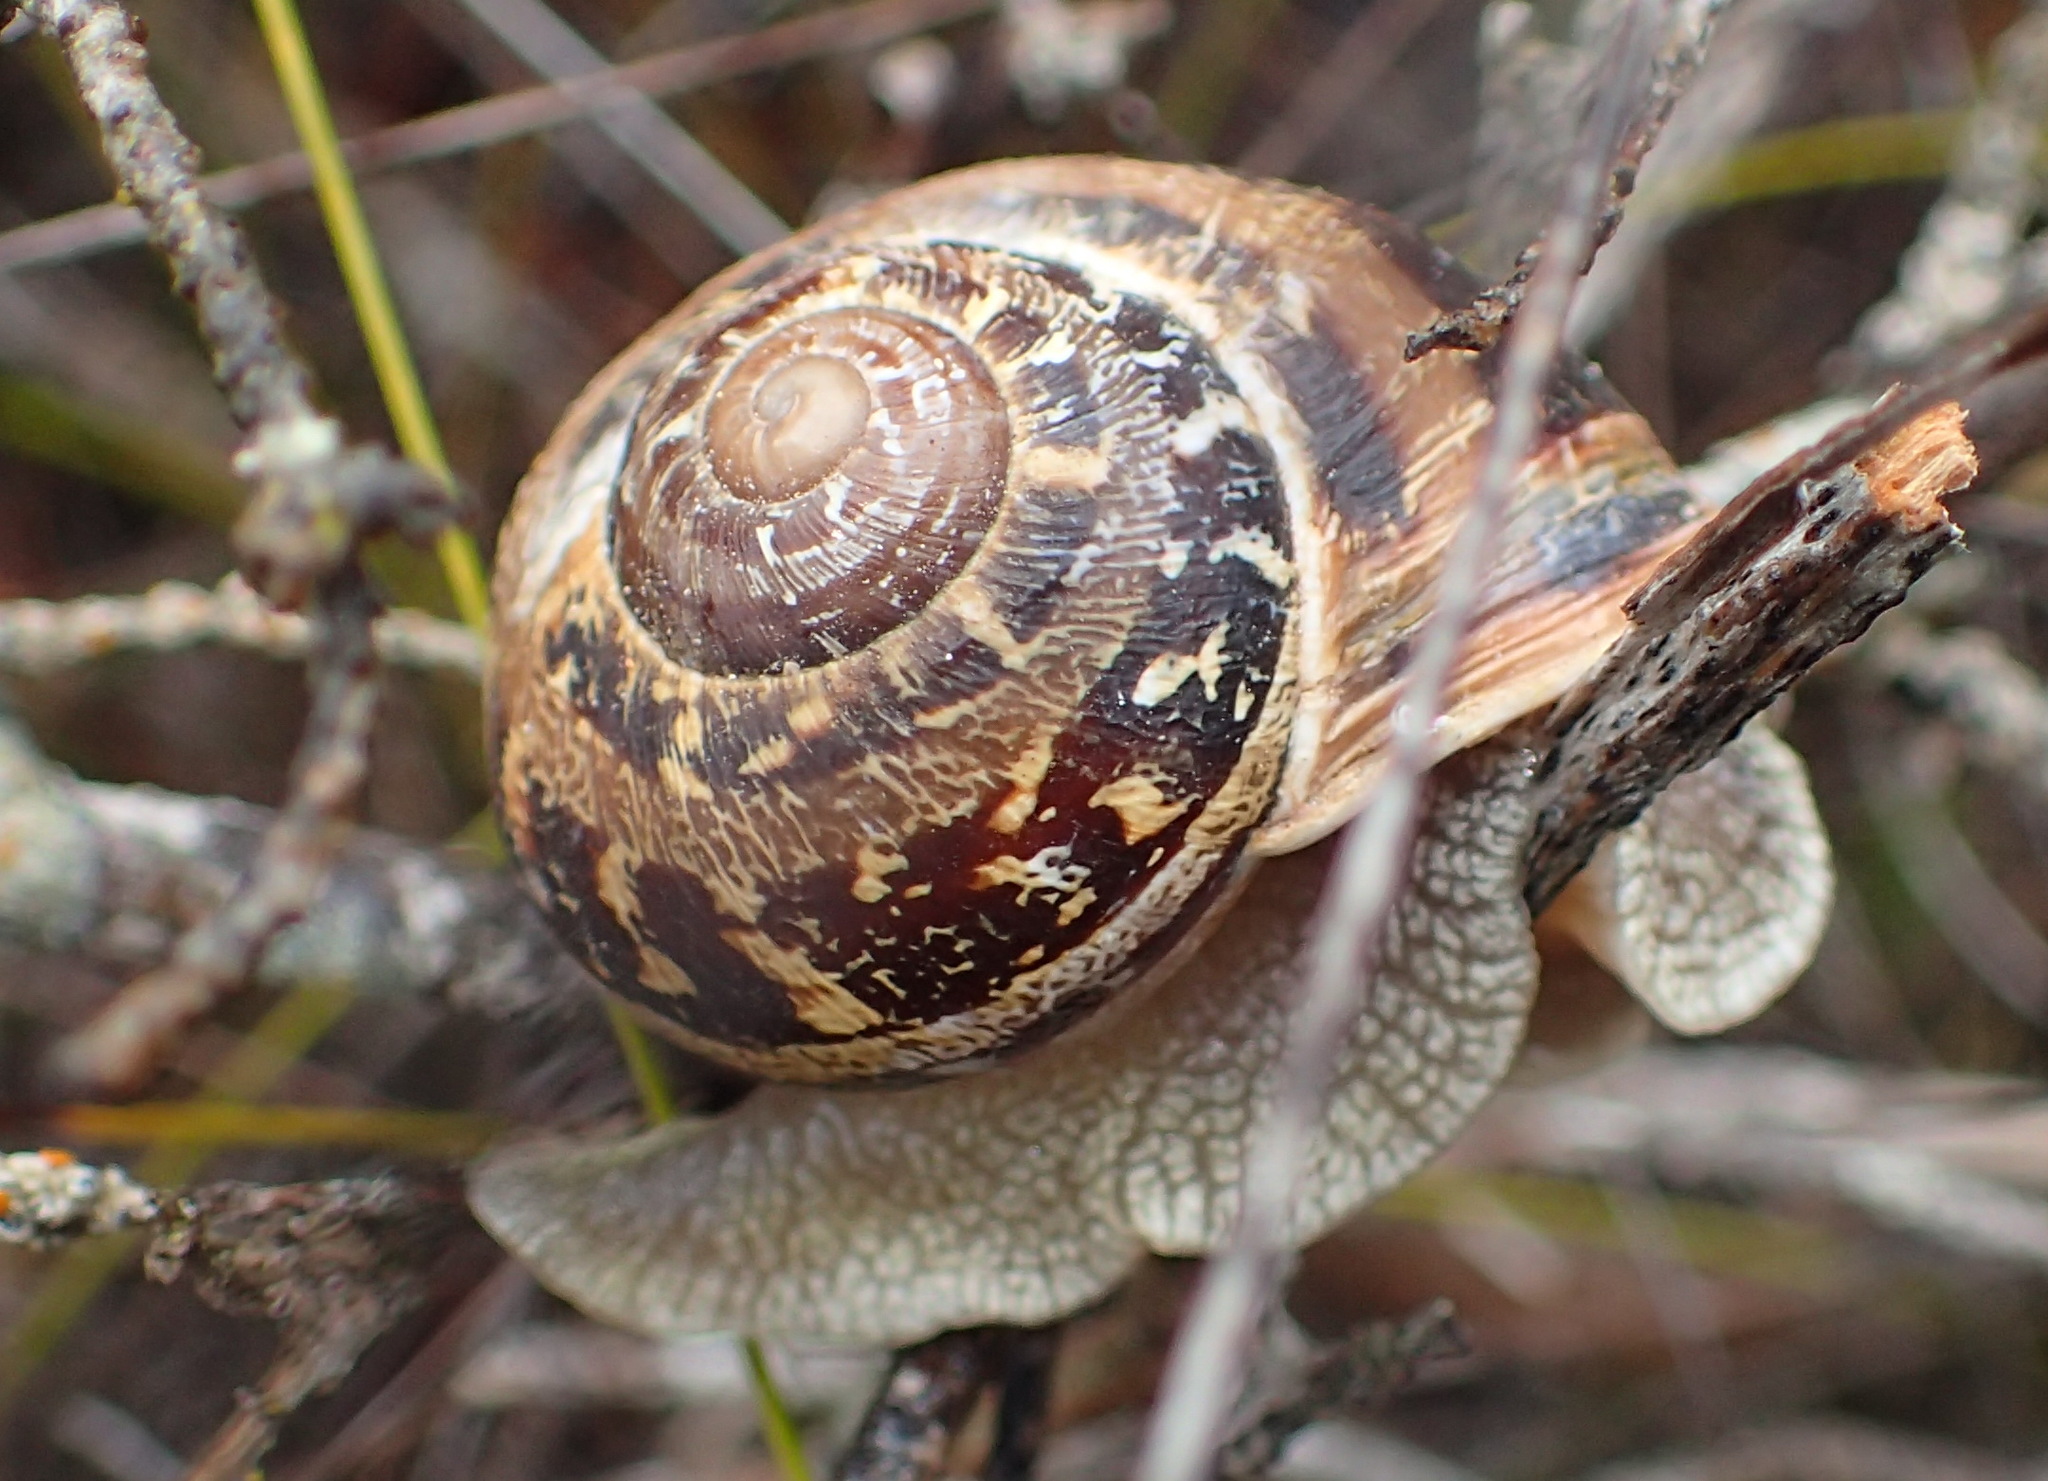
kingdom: Animalia
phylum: Mollusca
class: Gastropoda
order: Stylommatophora
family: Helicidae
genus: Cornu
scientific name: Cornu aspersum
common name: Brown garden snail
